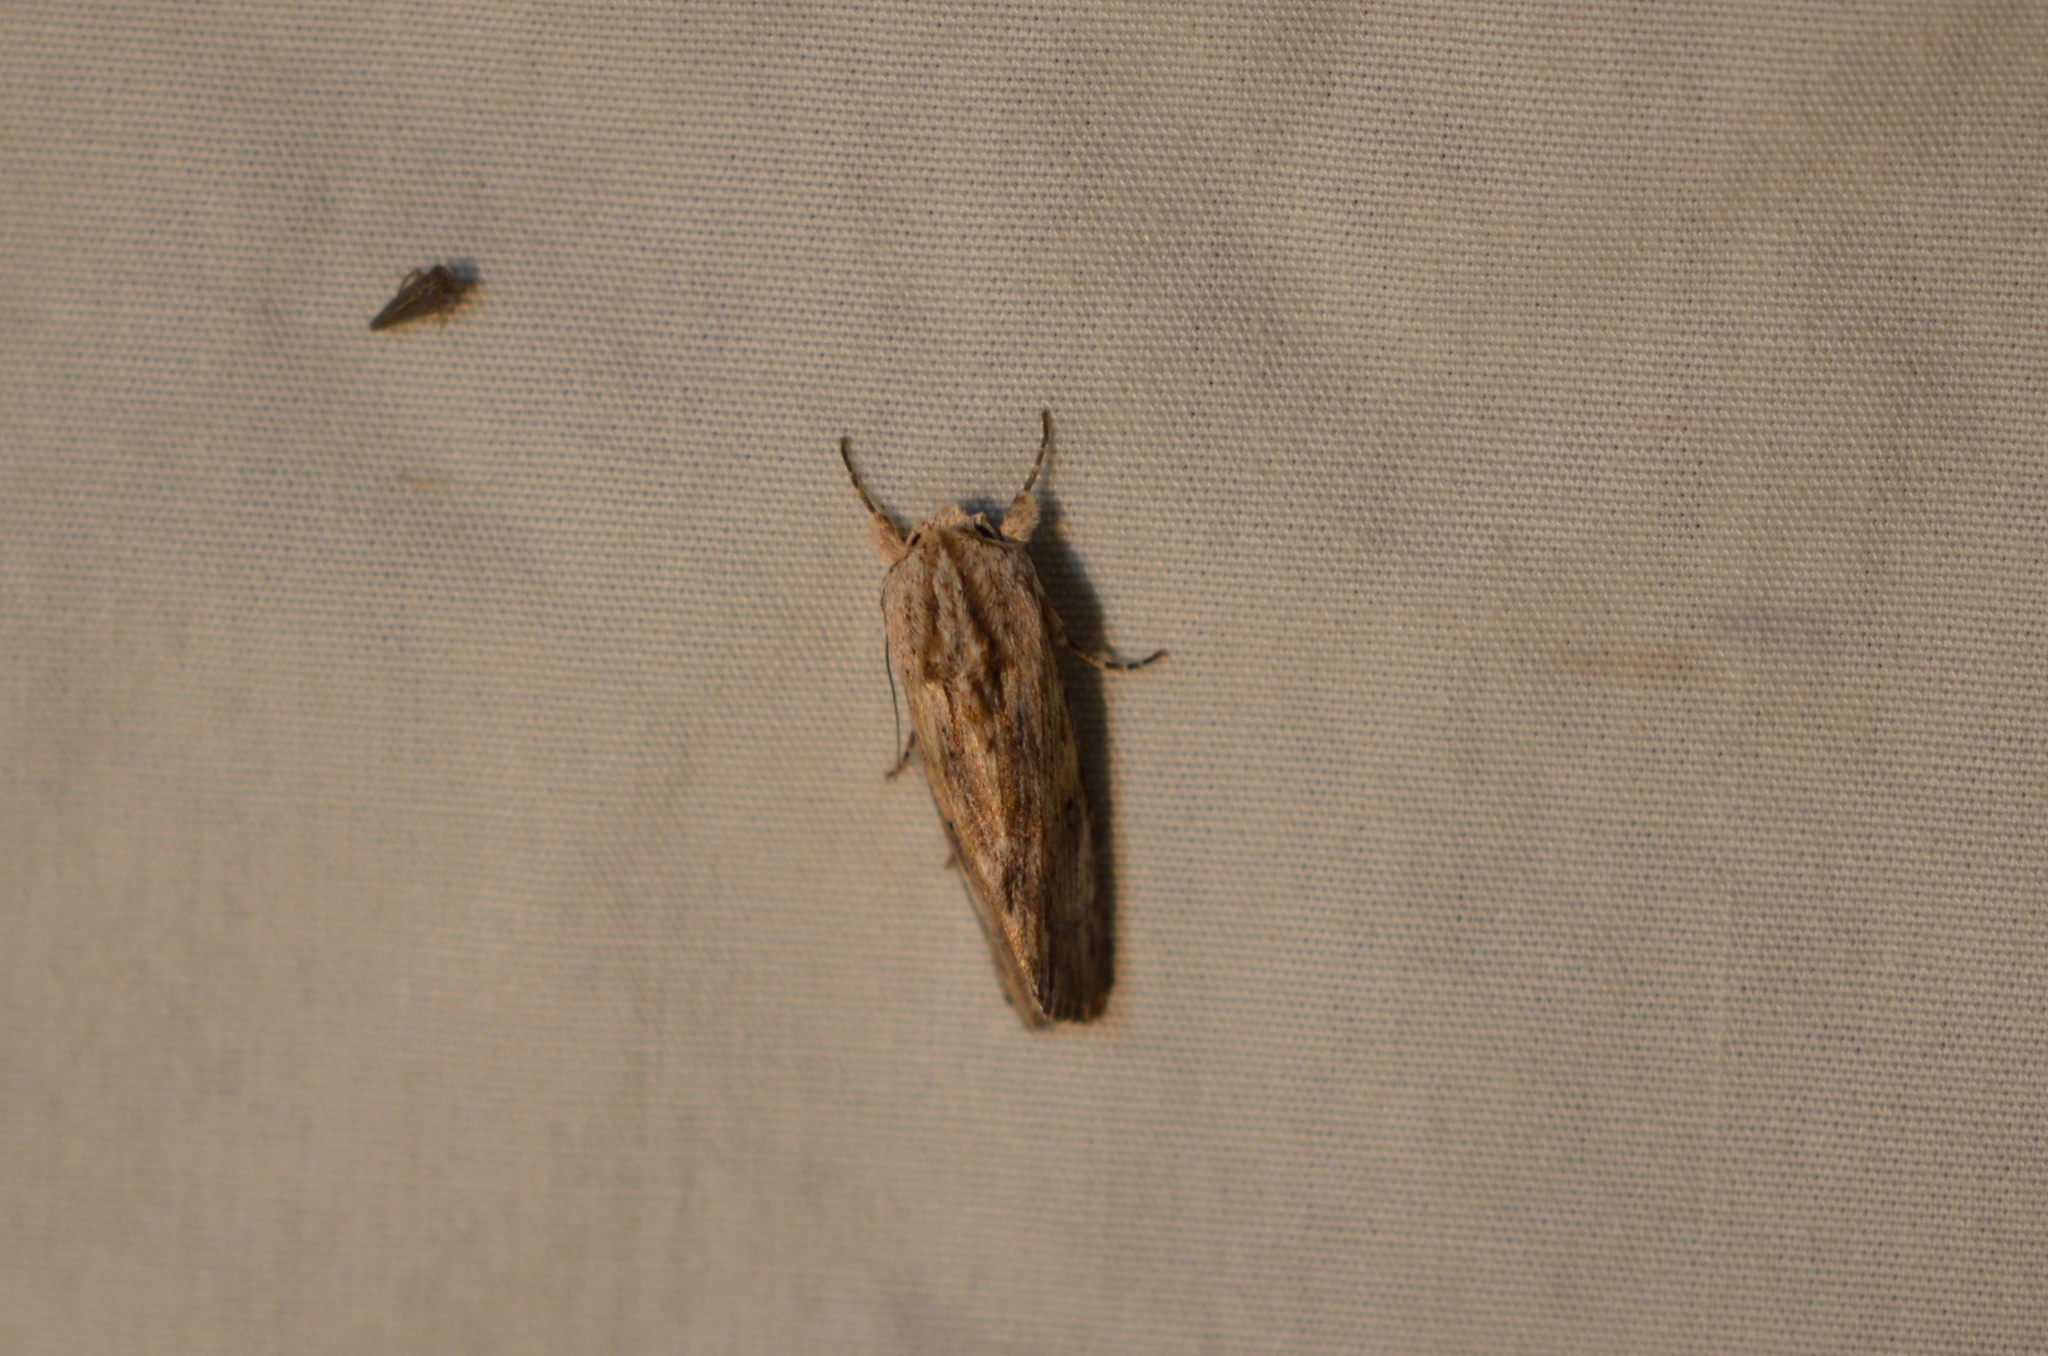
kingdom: Animalia
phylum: Arthropoda
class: Insecta
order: Lepidoptera
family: Noctuidae
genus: Spodoptera
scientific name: Spodoptera eridania
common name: Southern army worm
